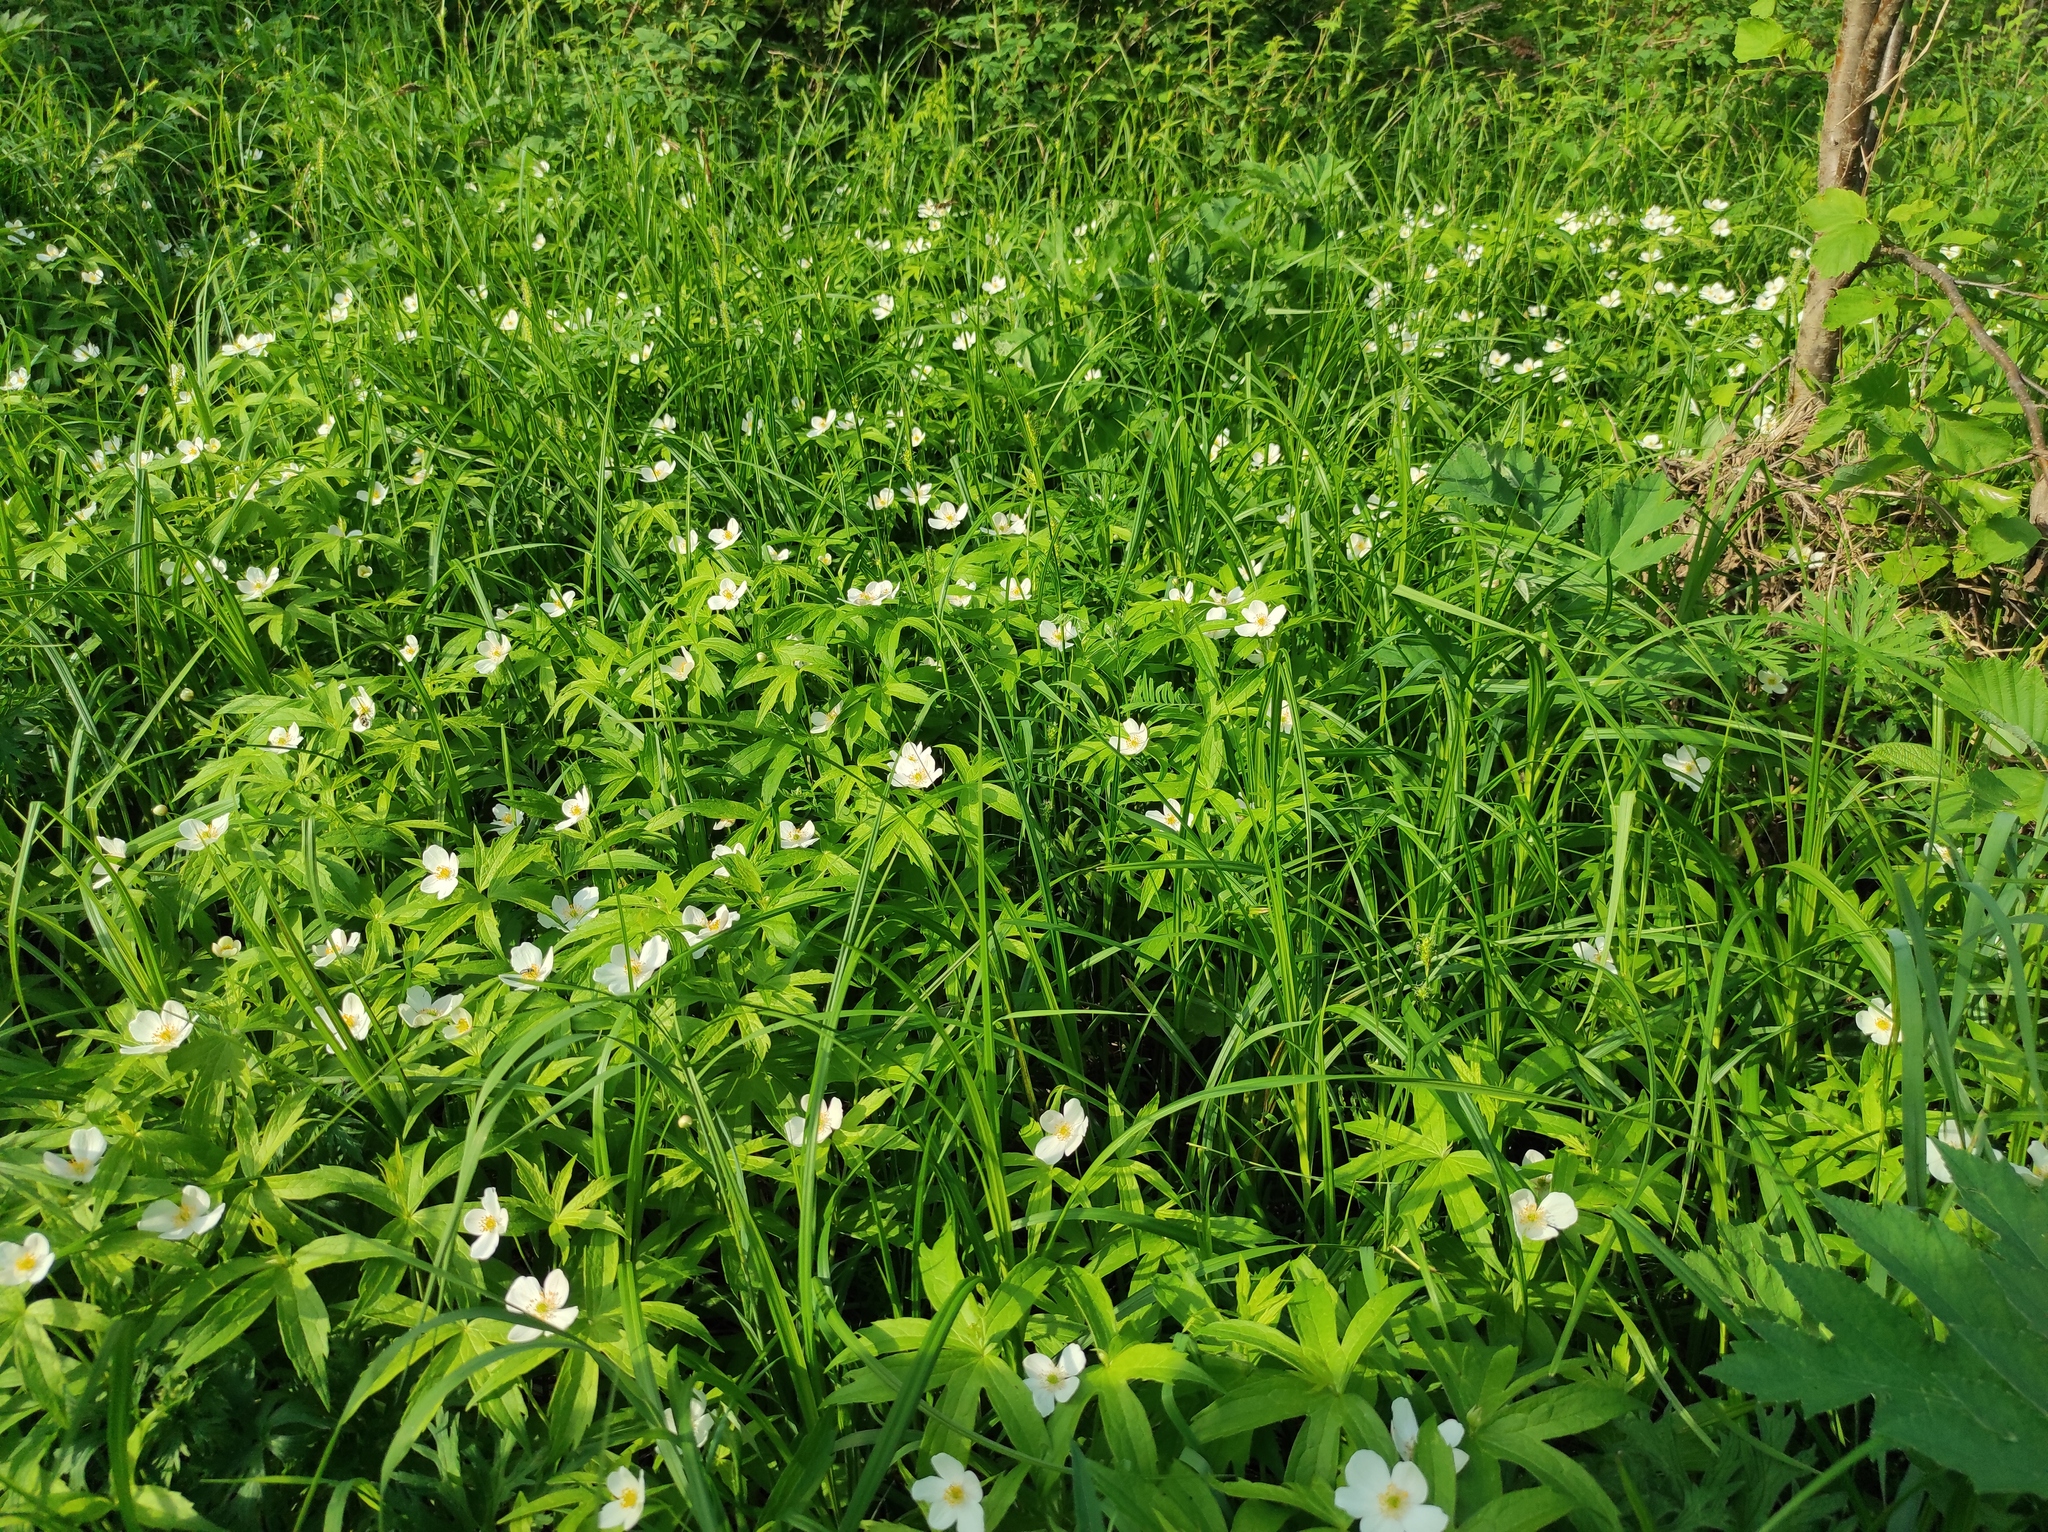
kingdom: Plantae
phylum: Tracheophyta
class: Magnoliopsida
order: Ranunculales
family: Ranunculaceae
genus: Anemonastrum
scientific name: Anemonastrum dichotomum
